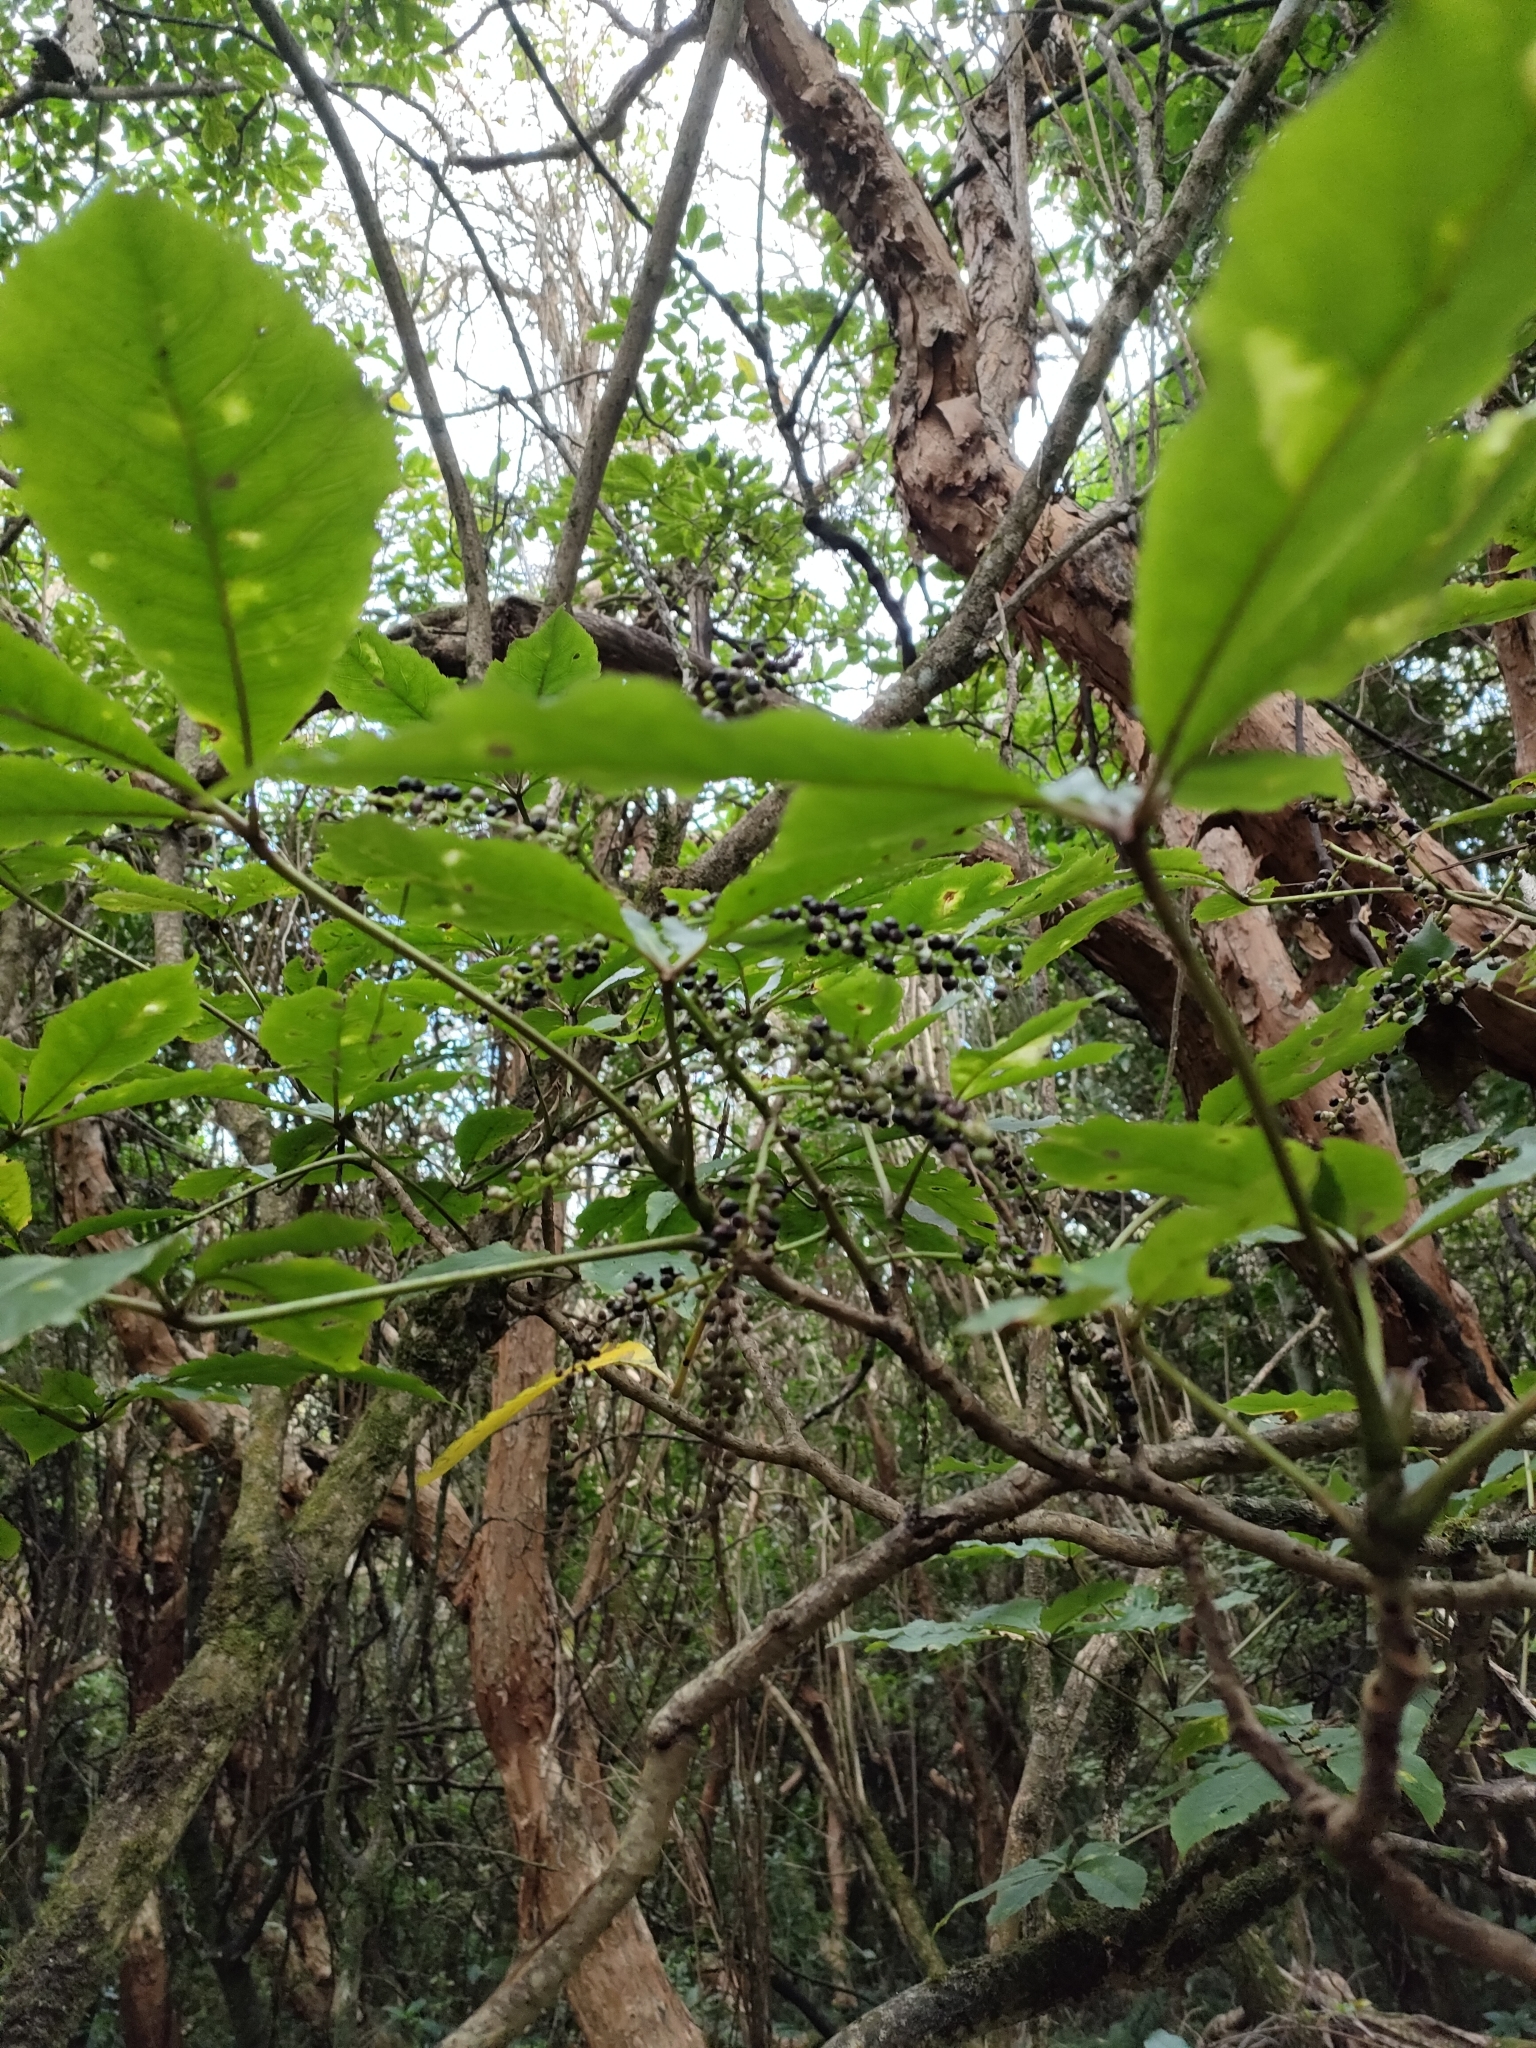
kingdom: Plantae
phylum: Tracheophyta
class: Magnoliopsida
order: Apiales
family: Araliaceae
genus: Schefflera
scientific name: Schefflera digitata
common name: Pate
